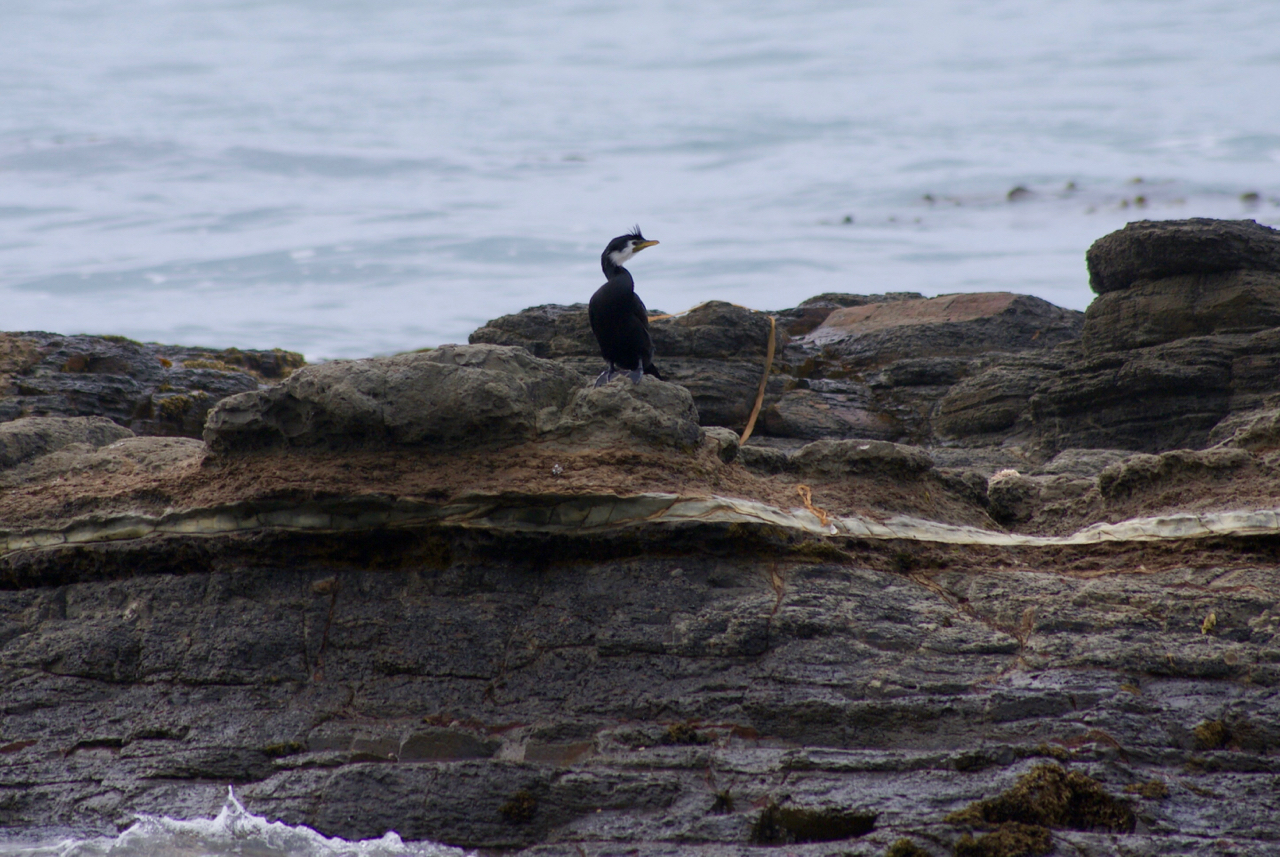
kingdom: Animalia
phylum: Chordata
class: Aves
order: Suliformes
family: Phalacrocoracidae
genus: Microcarbo
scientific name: Microcarbo melanoleucos
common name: Little pied cormorant
